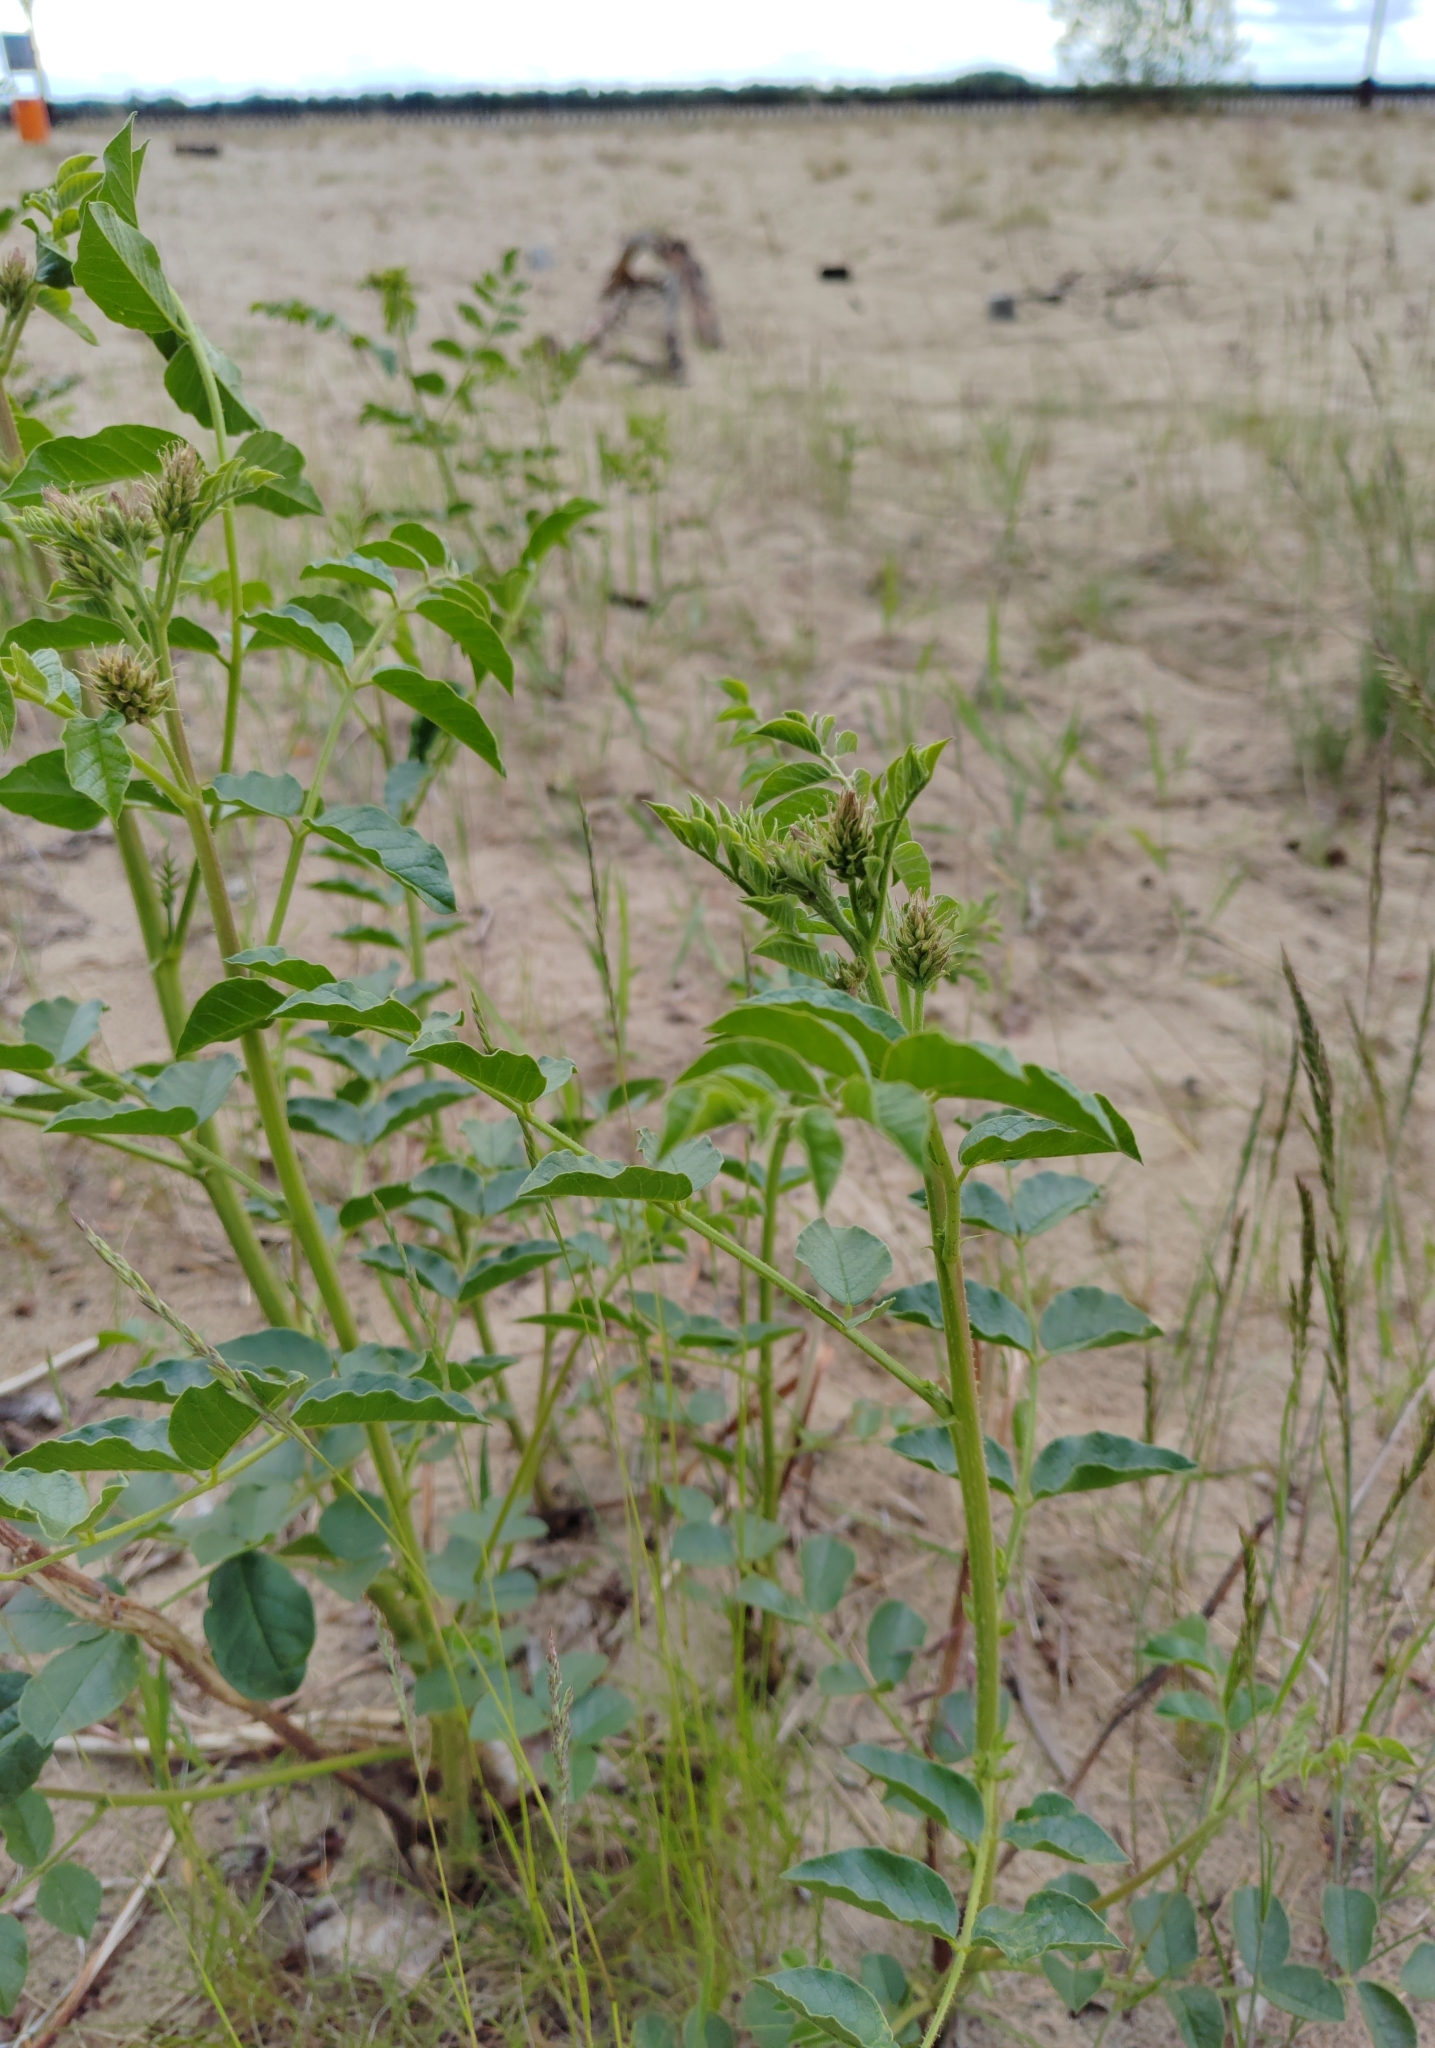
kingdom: Plantae
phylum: Tracheophyta
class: Magnoliopsida
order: Fabales
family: Fabaceae
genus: Glycyrrhiza
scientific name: Glycyrrhiza uralensis
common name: Chinese licorice
